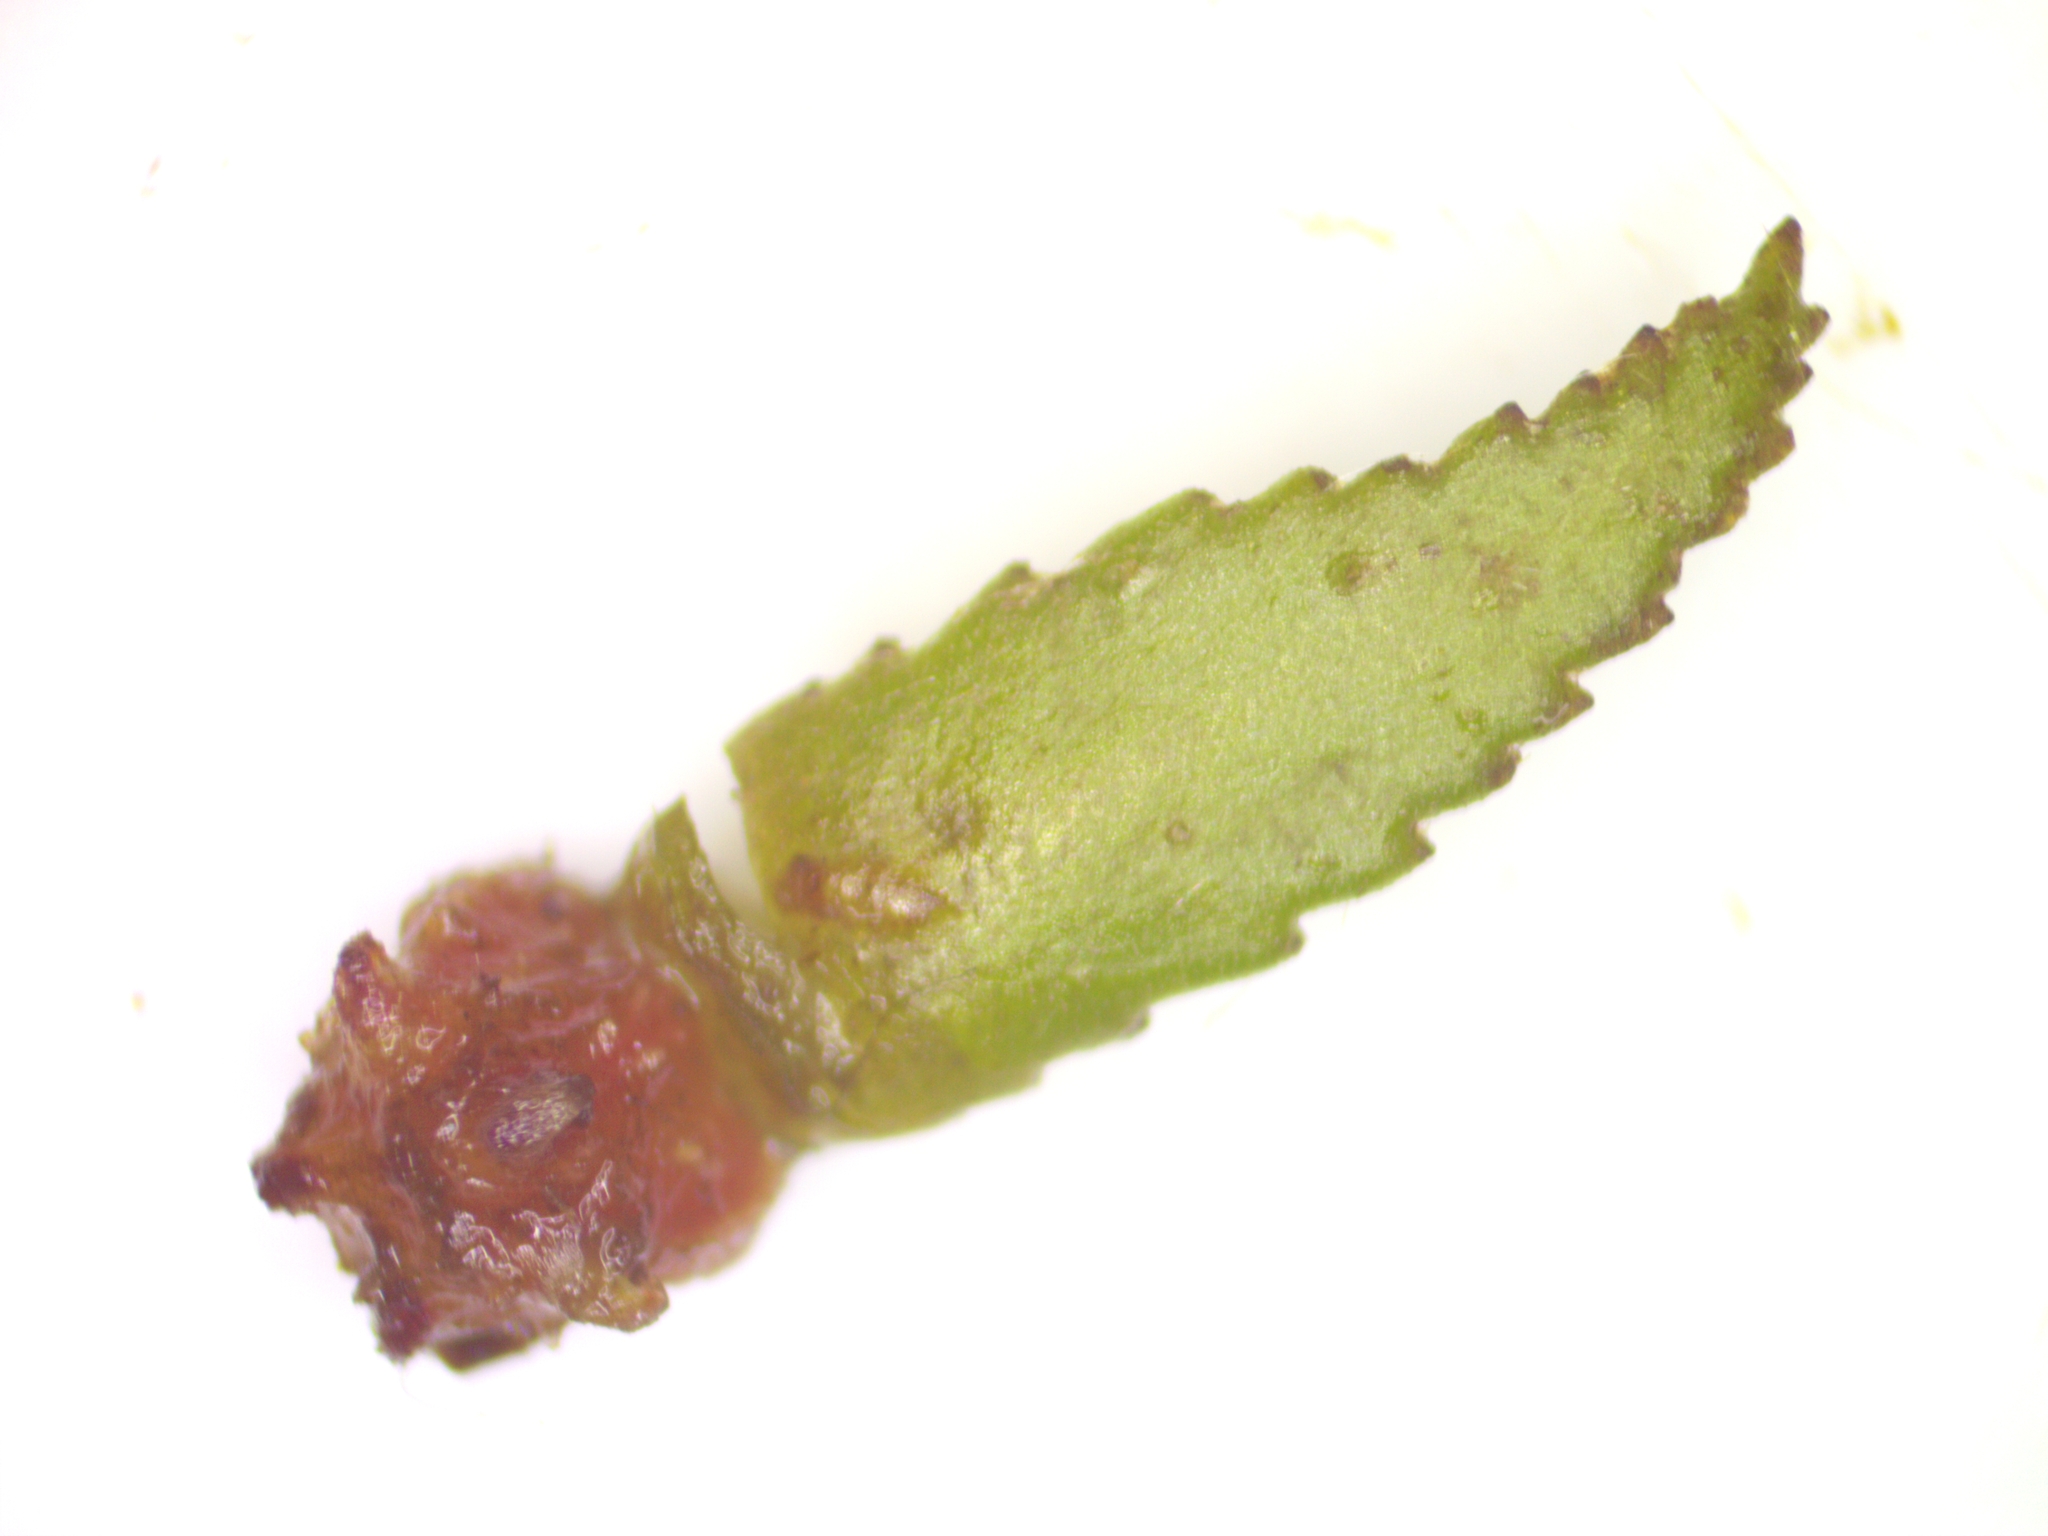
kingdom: Plantae
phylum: Tracheophyta
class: Magnoliopsida
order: Saxifragales
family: Haloragaceae
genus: Myriophyllum
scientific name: Myriophyllum heterophyllum
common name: Variable watermilfoil
